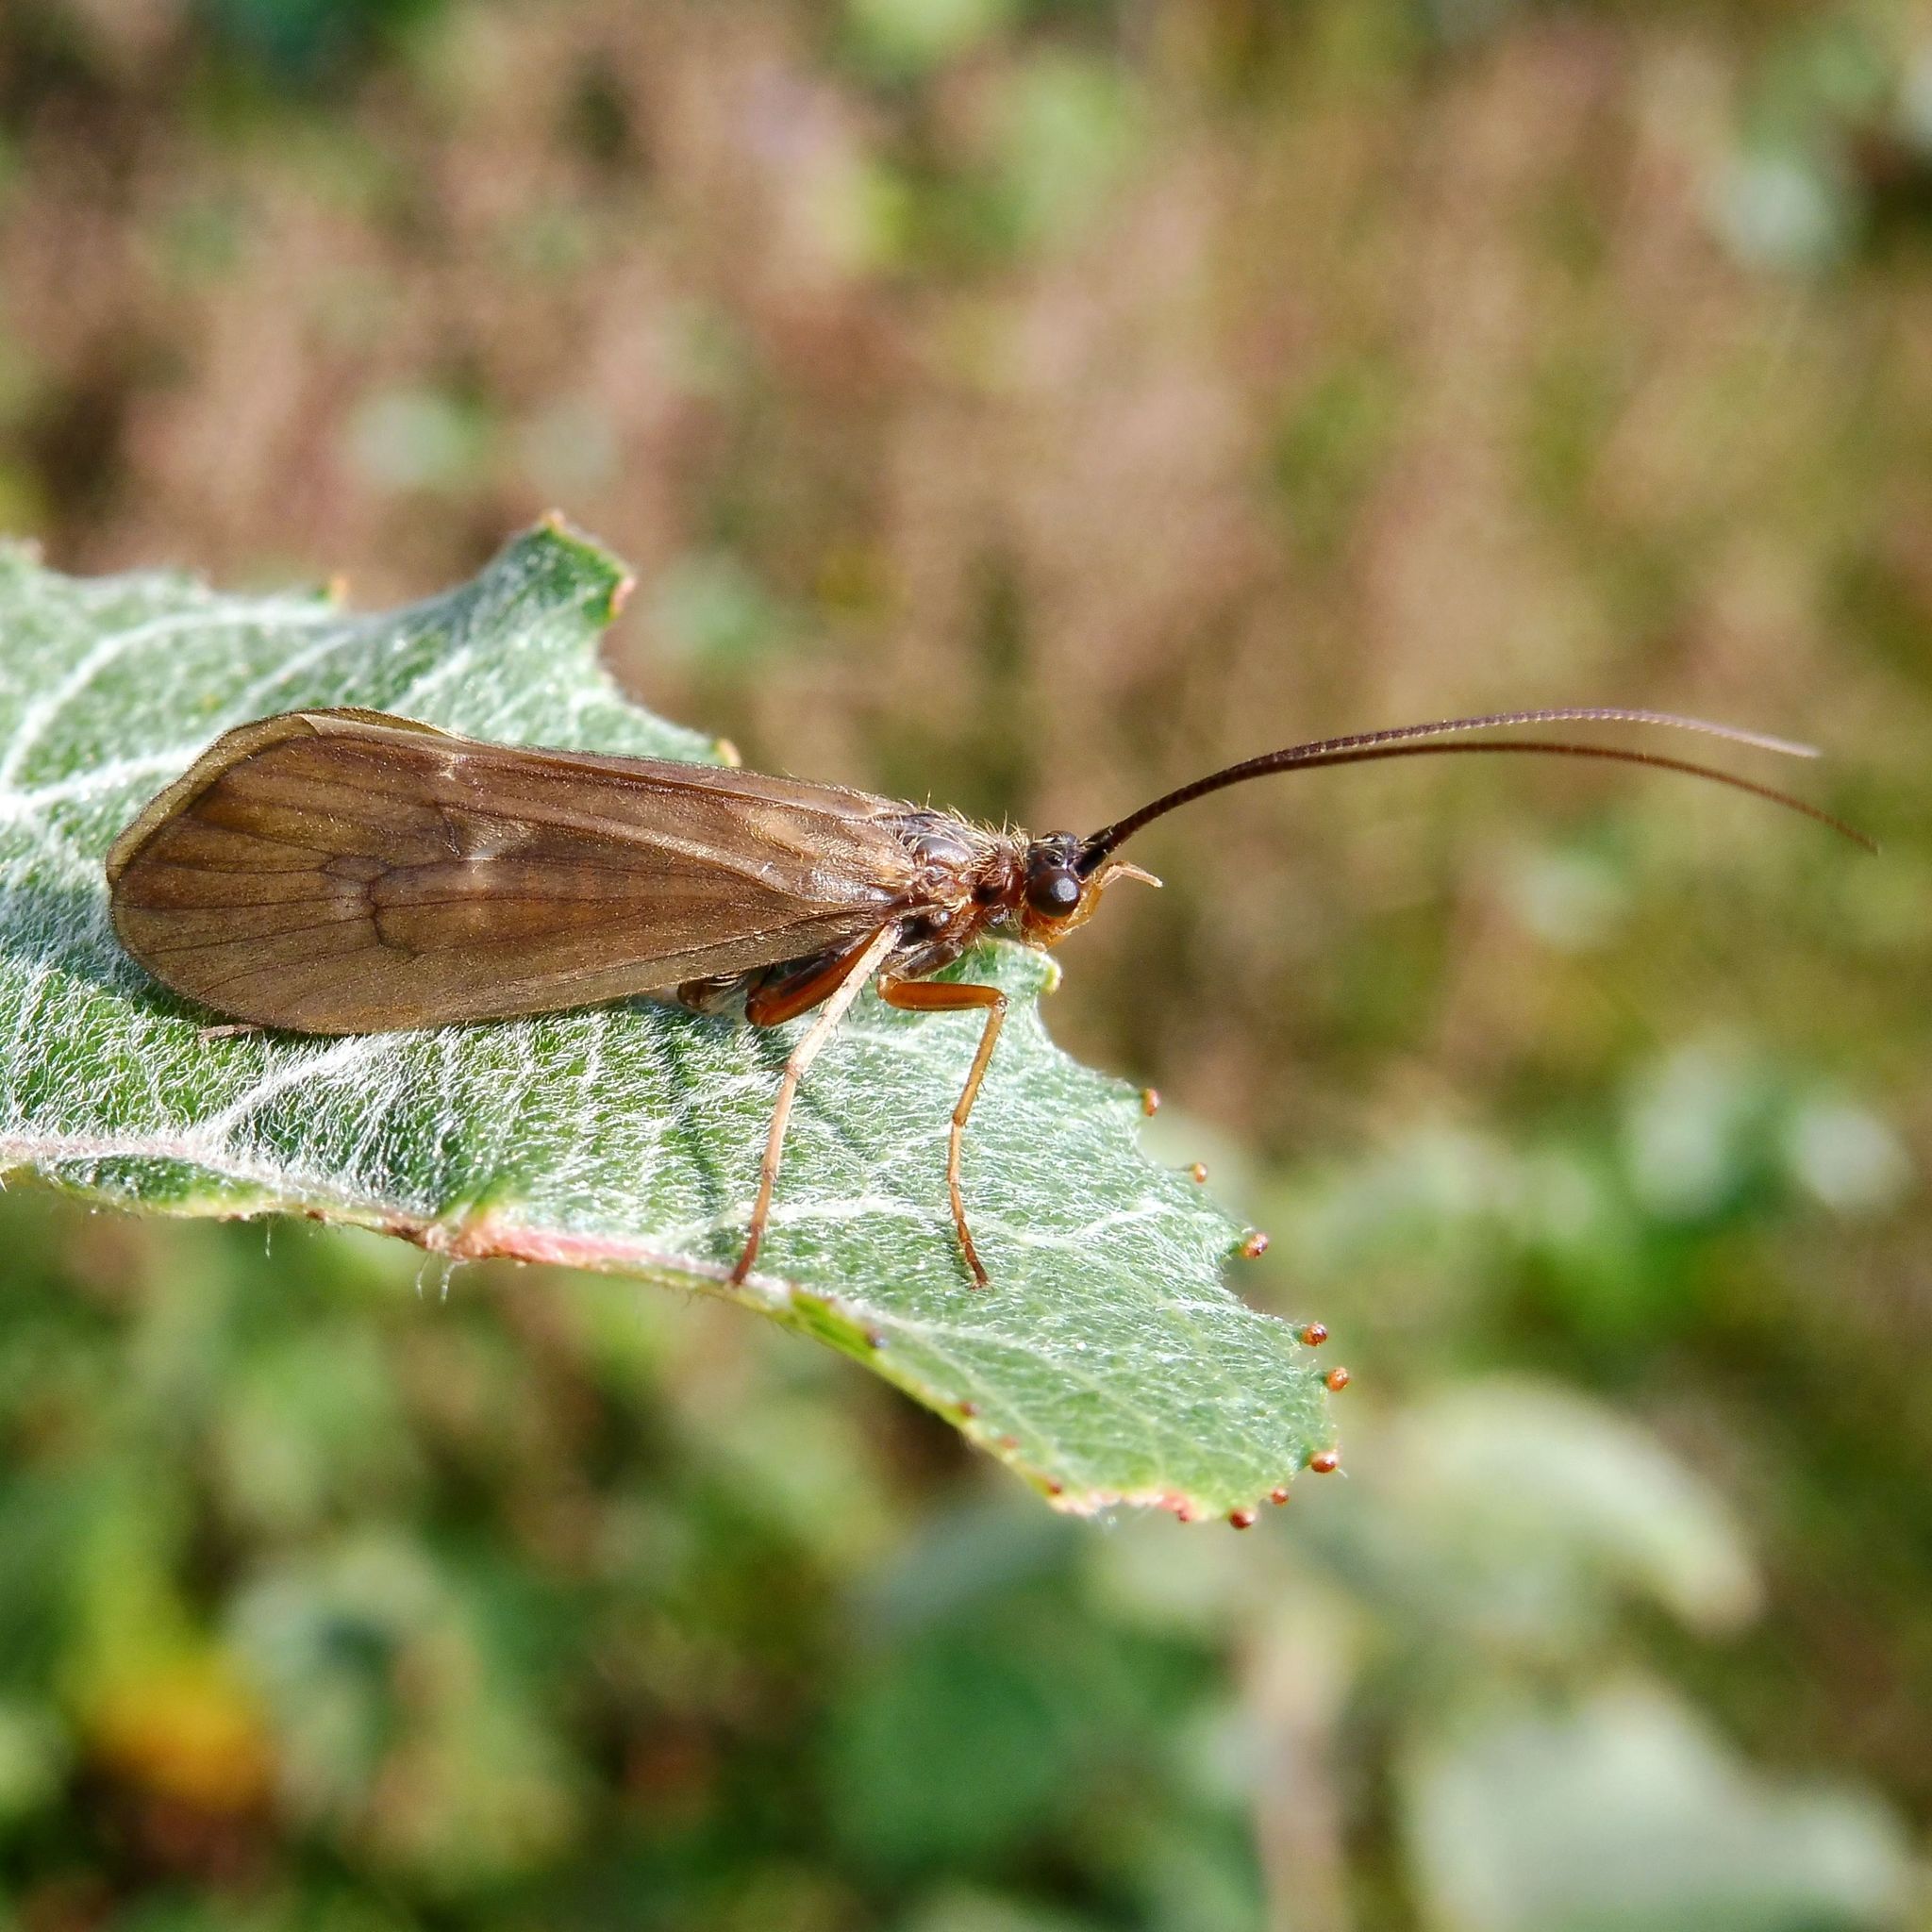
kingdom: Animalia
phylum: Arthropoda
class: Insecta
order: Trichoptera
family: Limnephilidae
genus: Anabolia
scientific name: Anabolia nervosa
